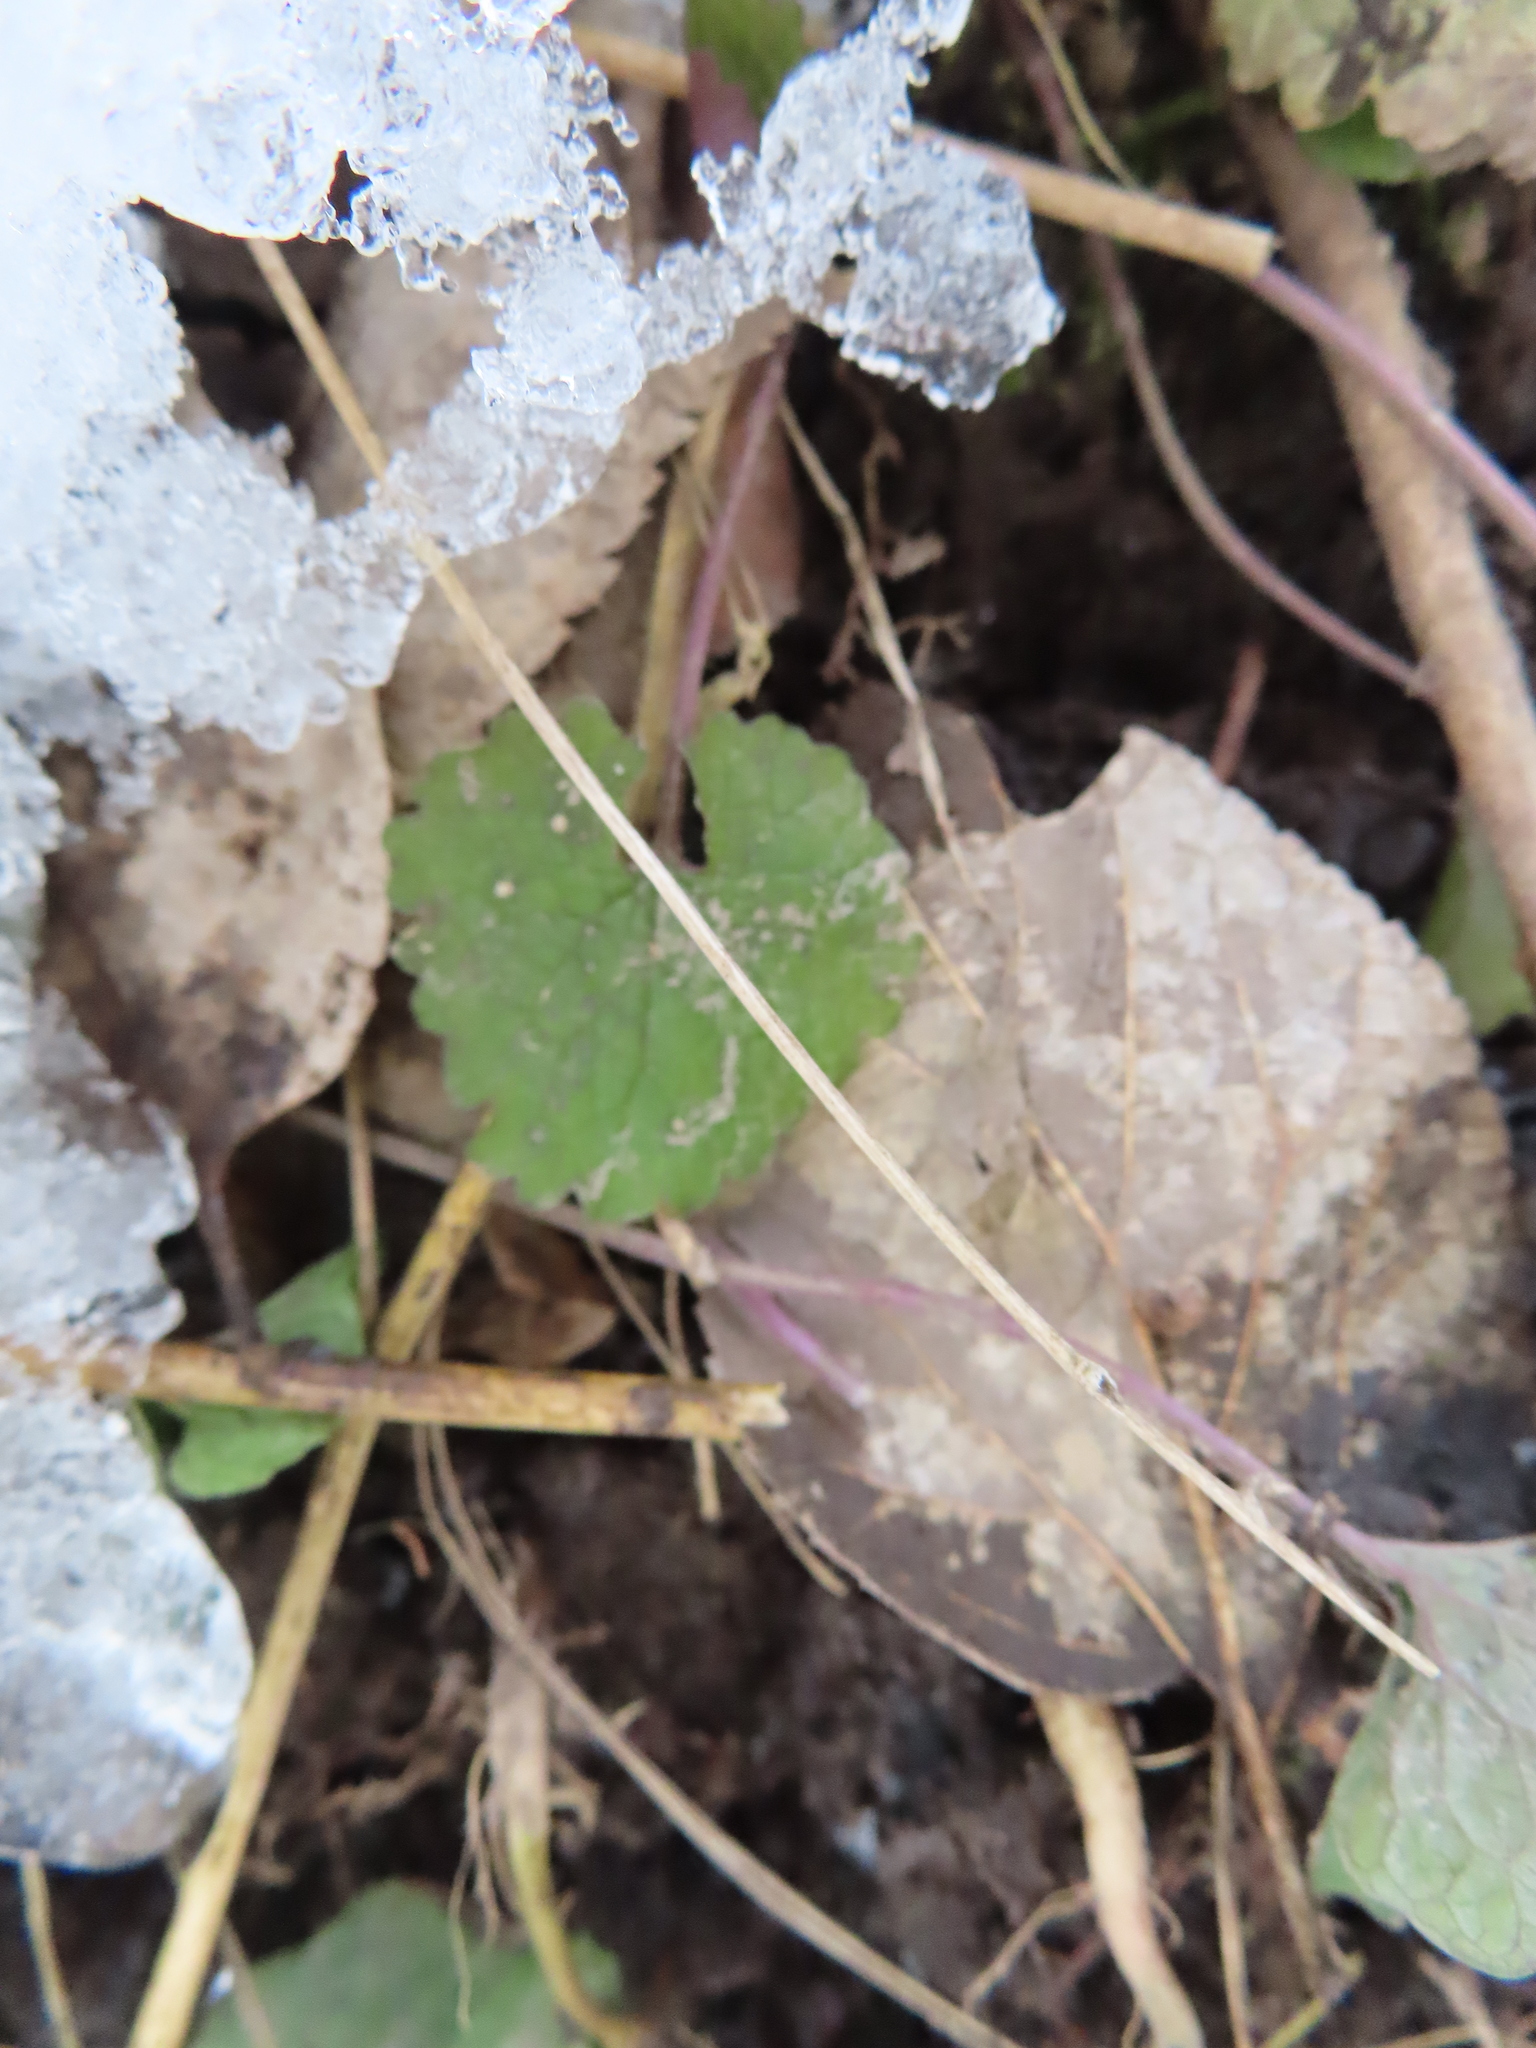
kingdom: Plantae
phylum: Tracheophyta
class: Magnoliopsida
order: Lamiales
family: Lamiaceae
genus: Glechoma
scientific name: Glechoma hederacea
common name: Ground ivy
